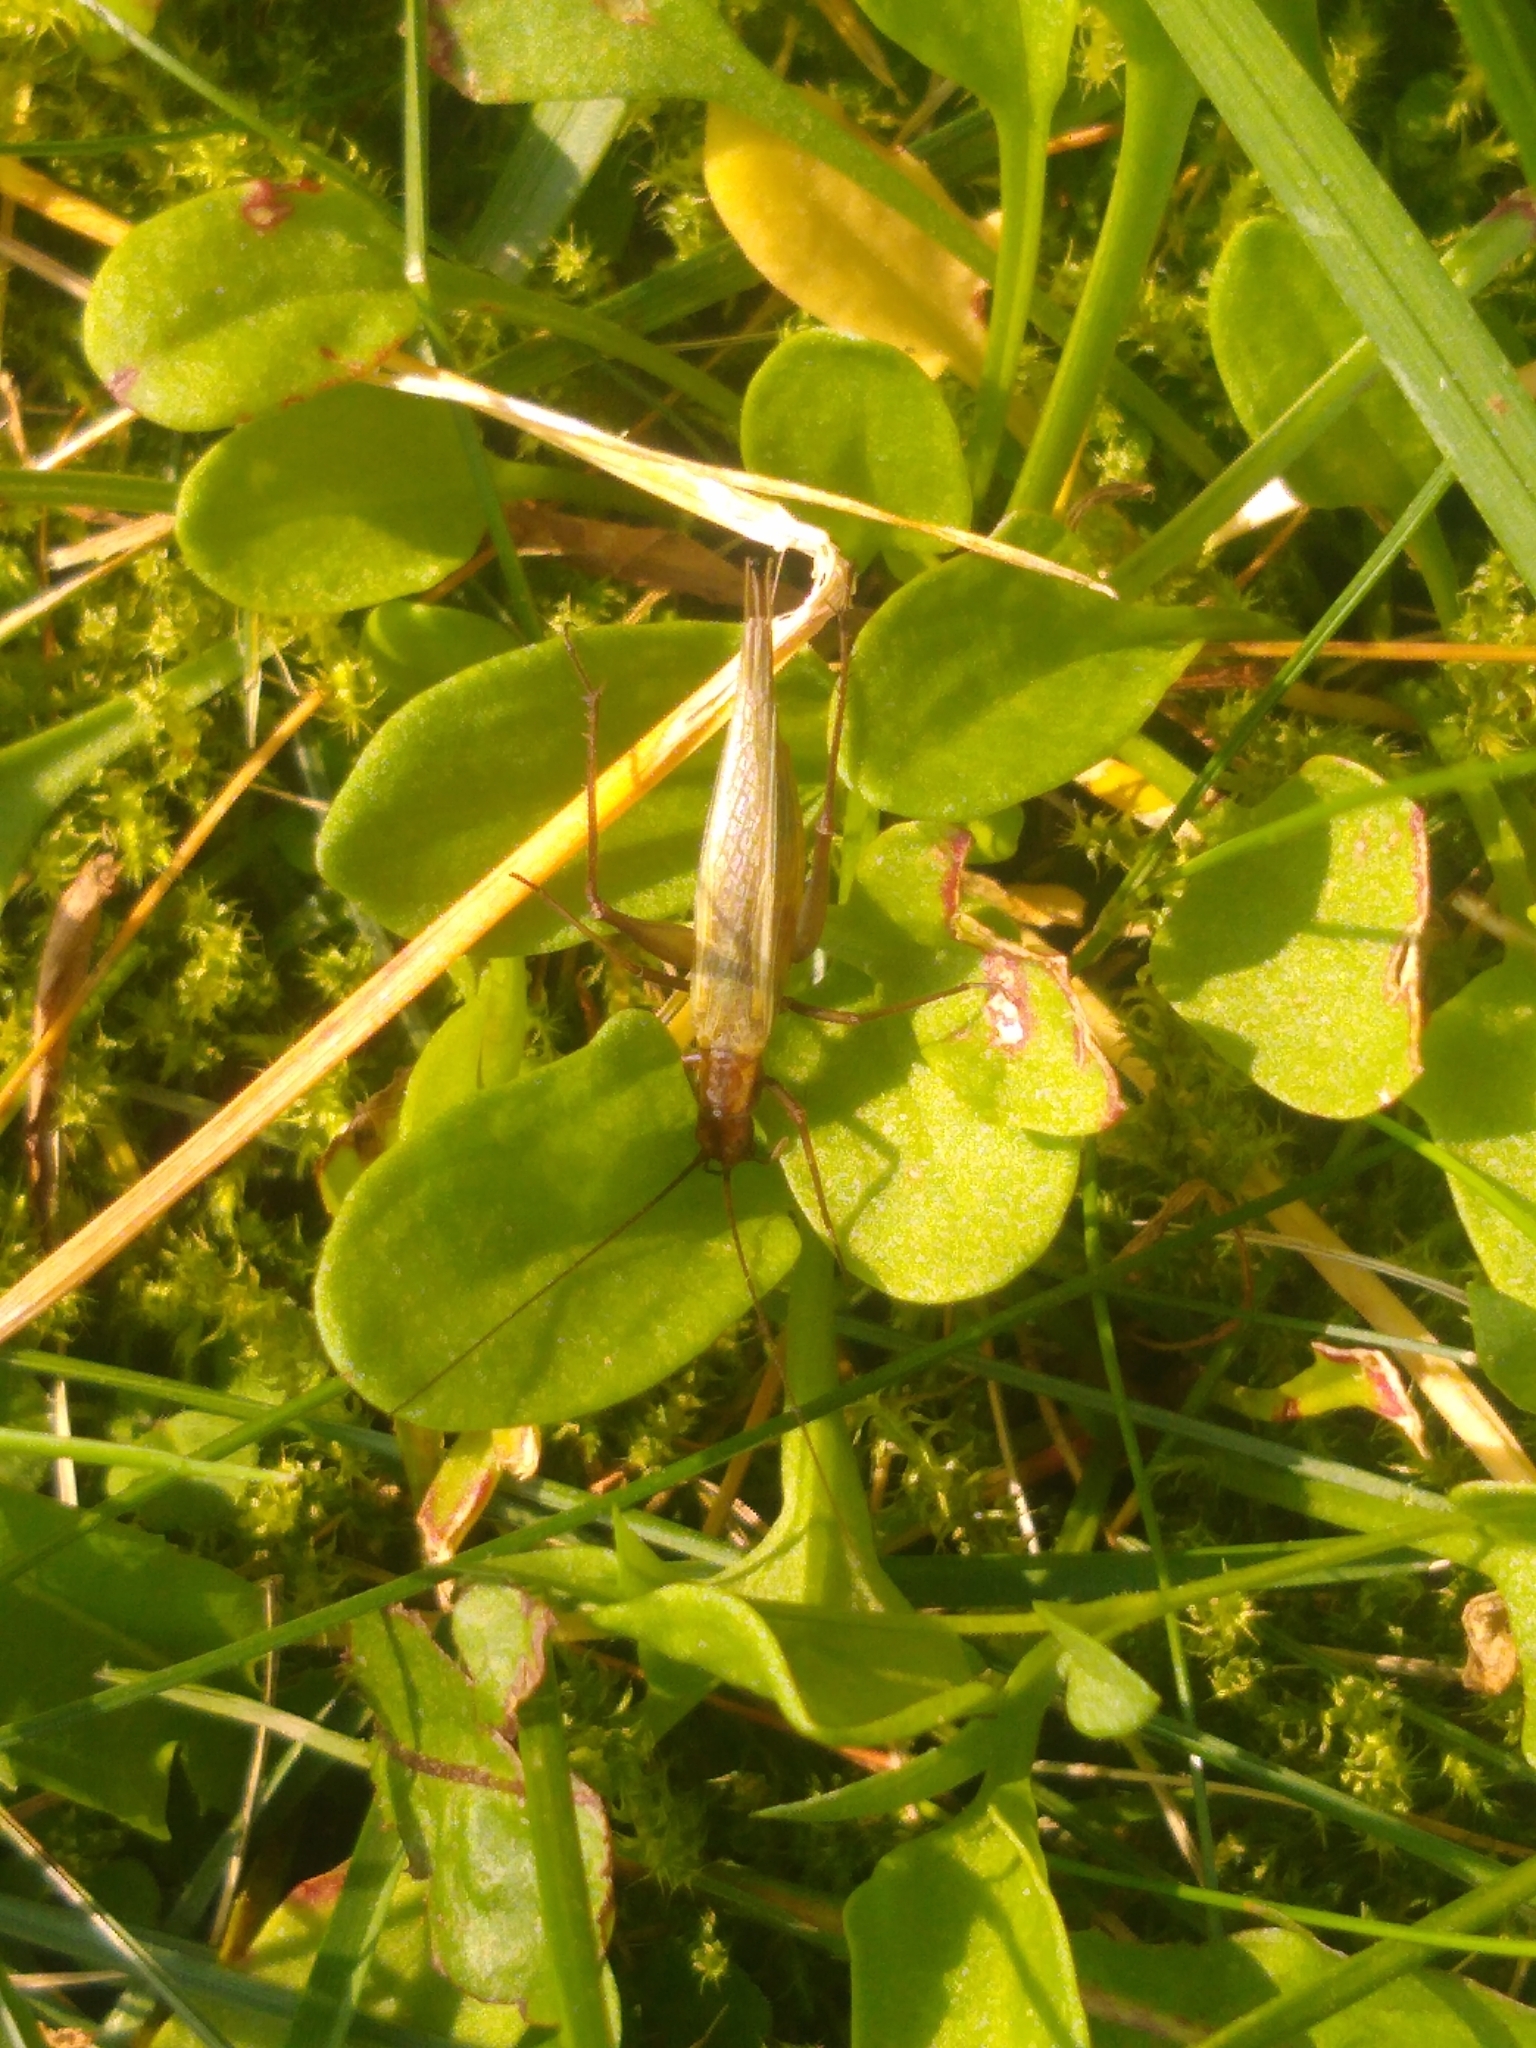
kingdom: Animalia
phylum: Arthropoda
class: Insecta
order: Orthoptera
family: Gryllidae
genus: Oecanthus
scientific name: Oecanthus pini
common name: Pine tree cricket
